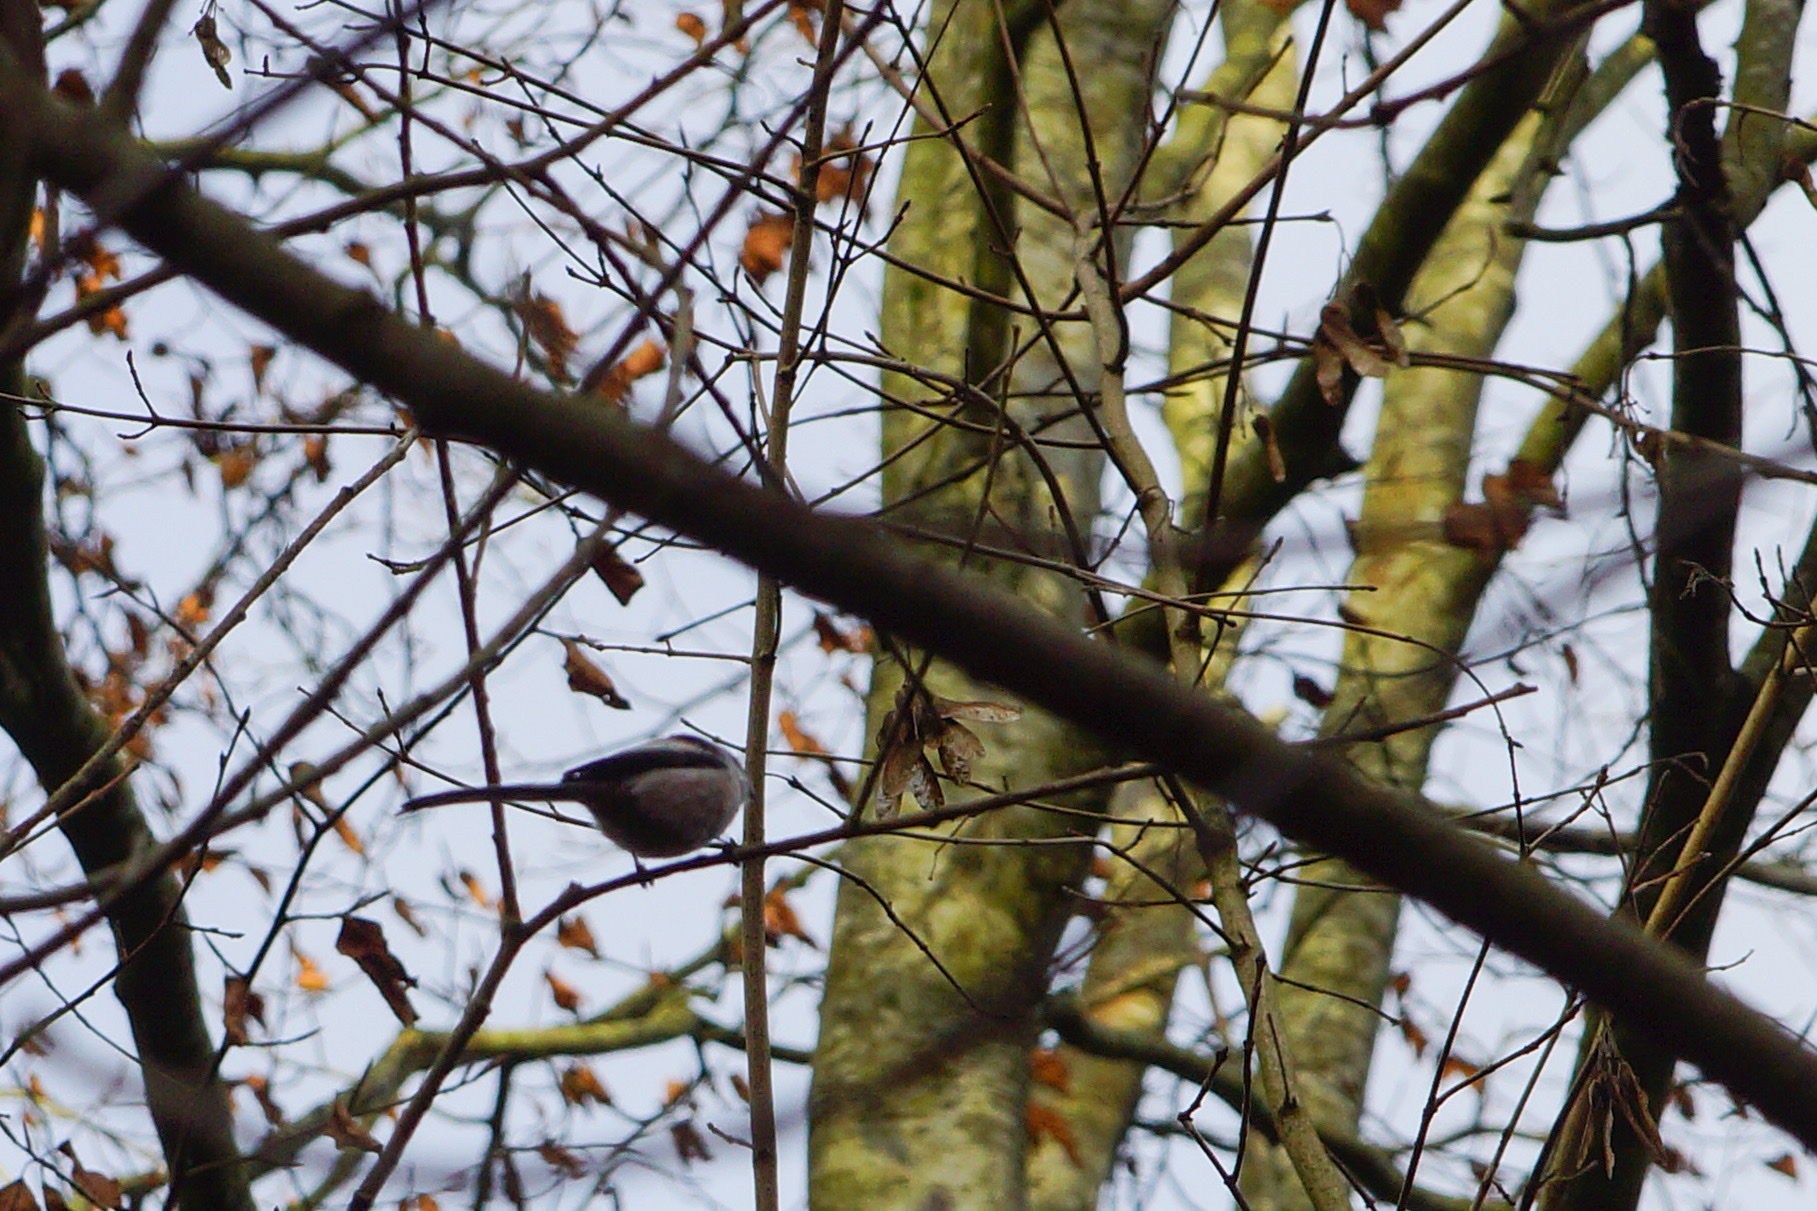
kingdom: Animalia
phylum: Chordata
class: Aves
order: Passeriformes
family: Aegithalidae
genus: Aegithalos
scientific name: Aegithalos caudatus
